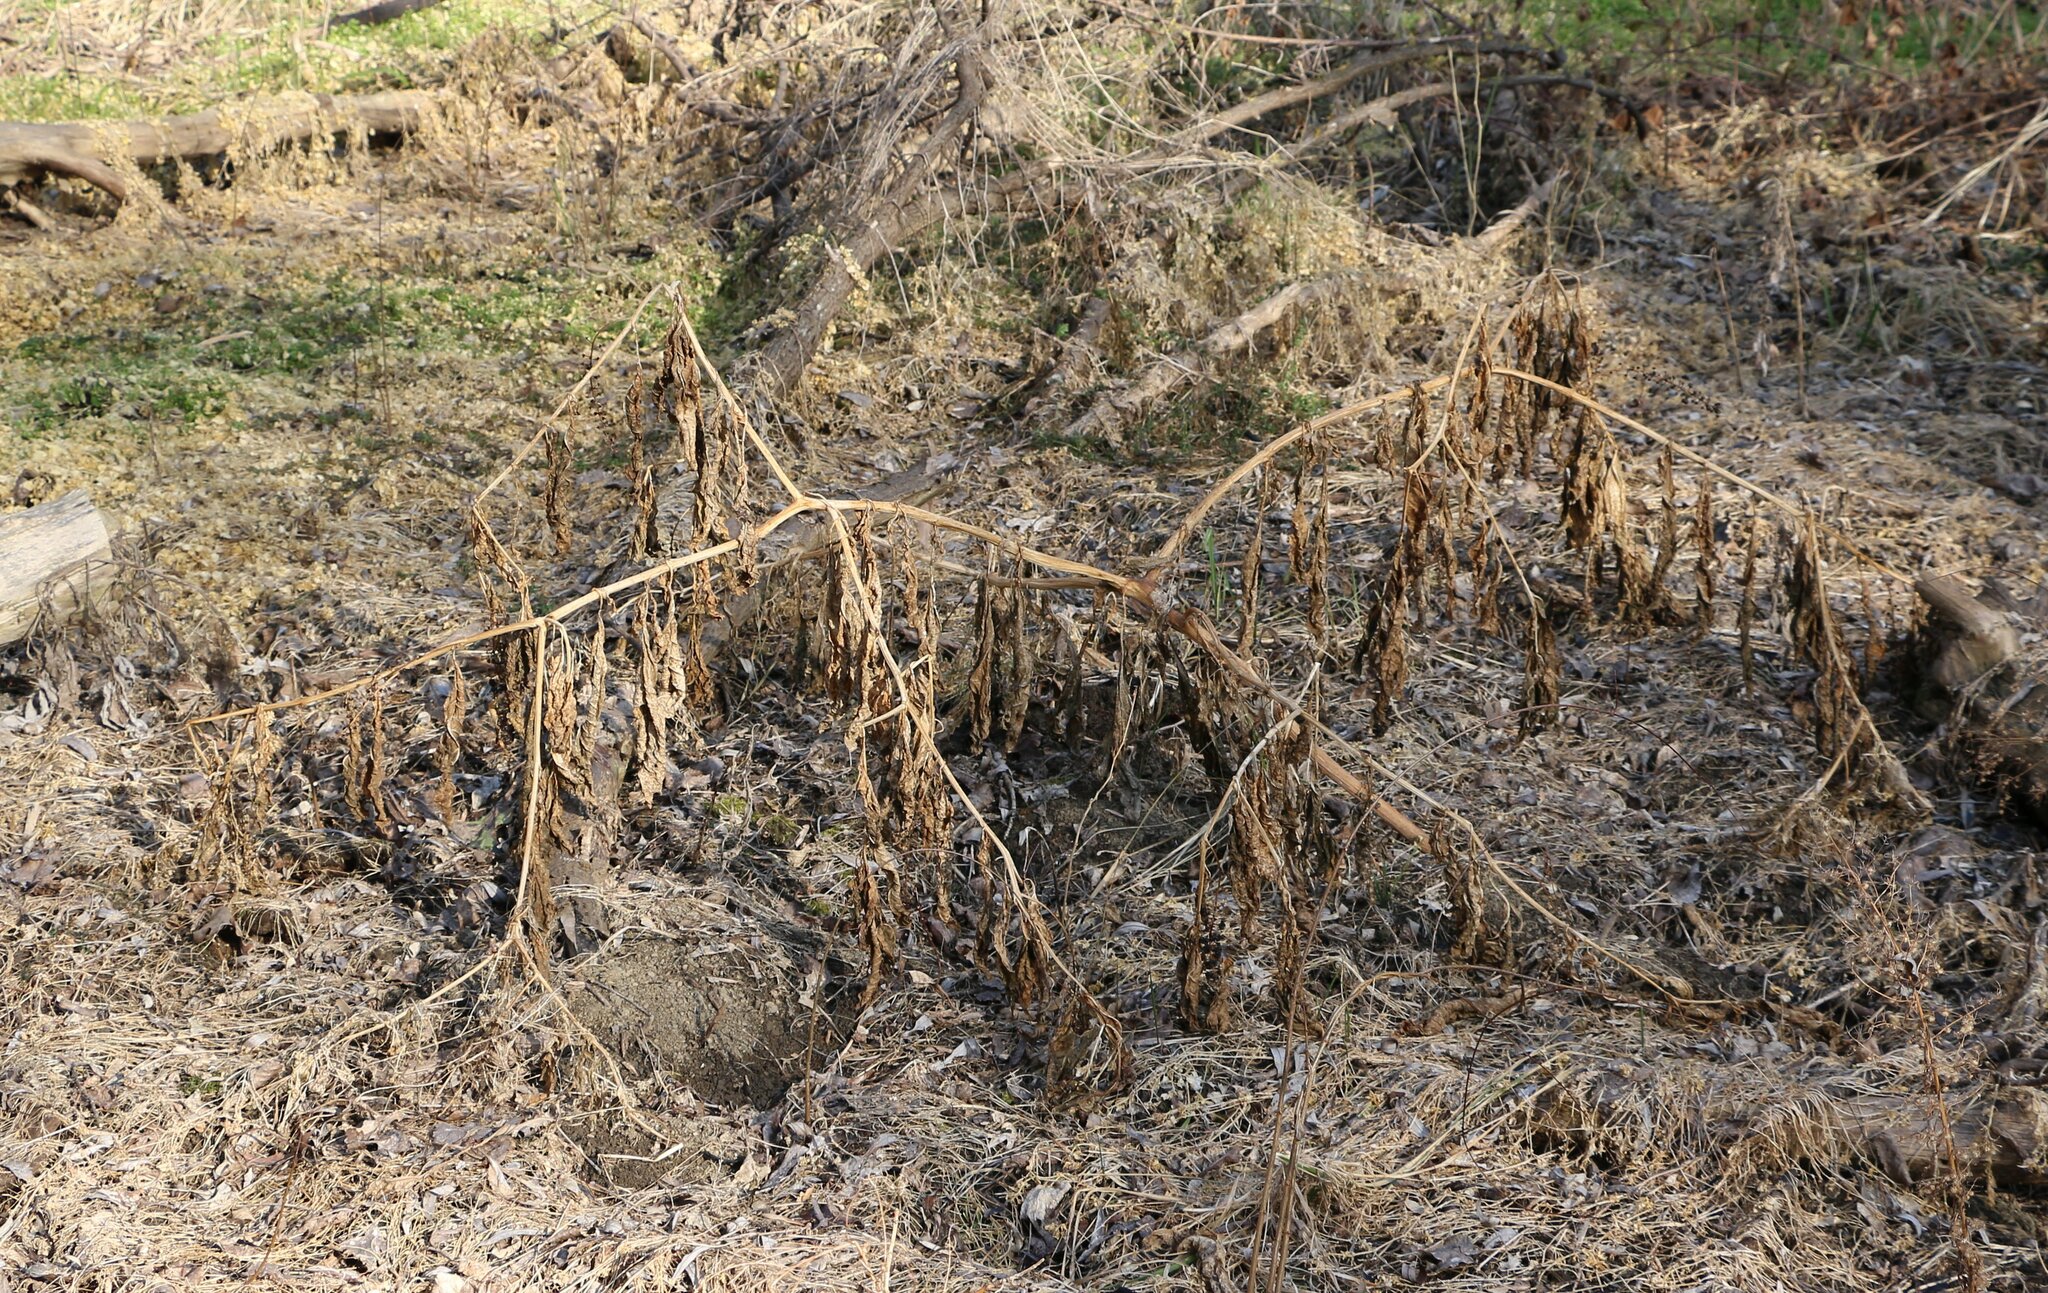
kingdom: Plantae
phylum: Tracheophyta
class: Magnoliopsida
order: Caryophyllales
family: Phytolaccaceae
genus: Phytolacca
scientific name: Phytolacca americana
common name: American pokeweed
